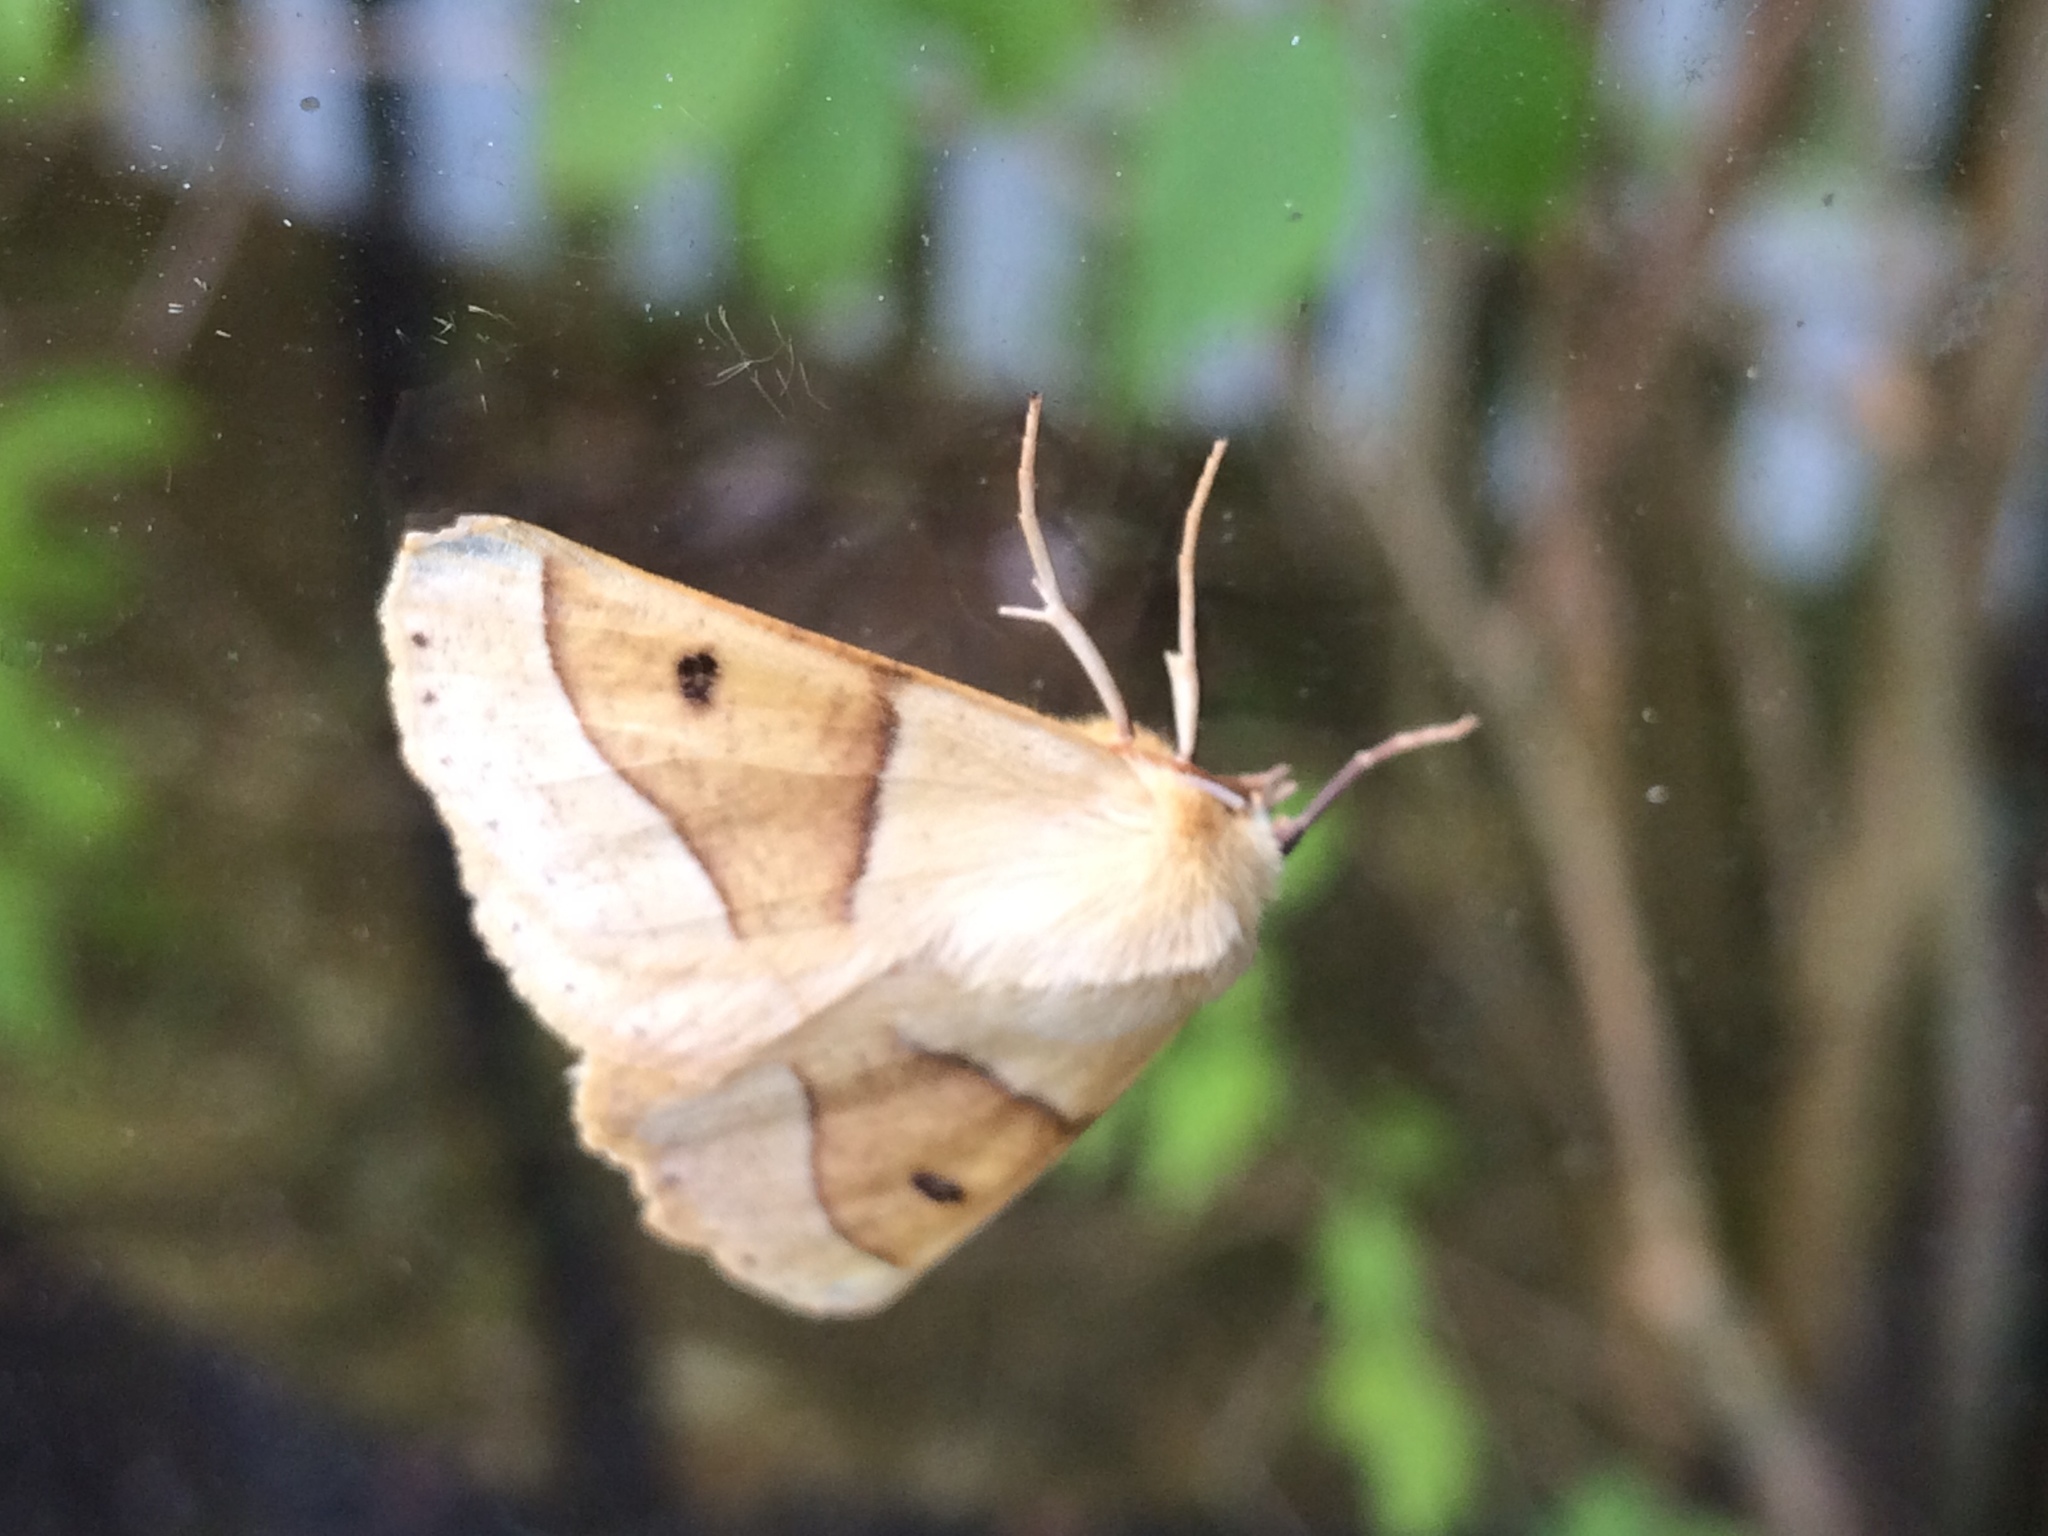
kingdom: Animalia
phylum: Arthropoda
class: Insecta
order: Lepidoptera
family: Geometridae
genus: Crocallis
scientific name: Crocallis elinguaria
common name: Scalloped oak
